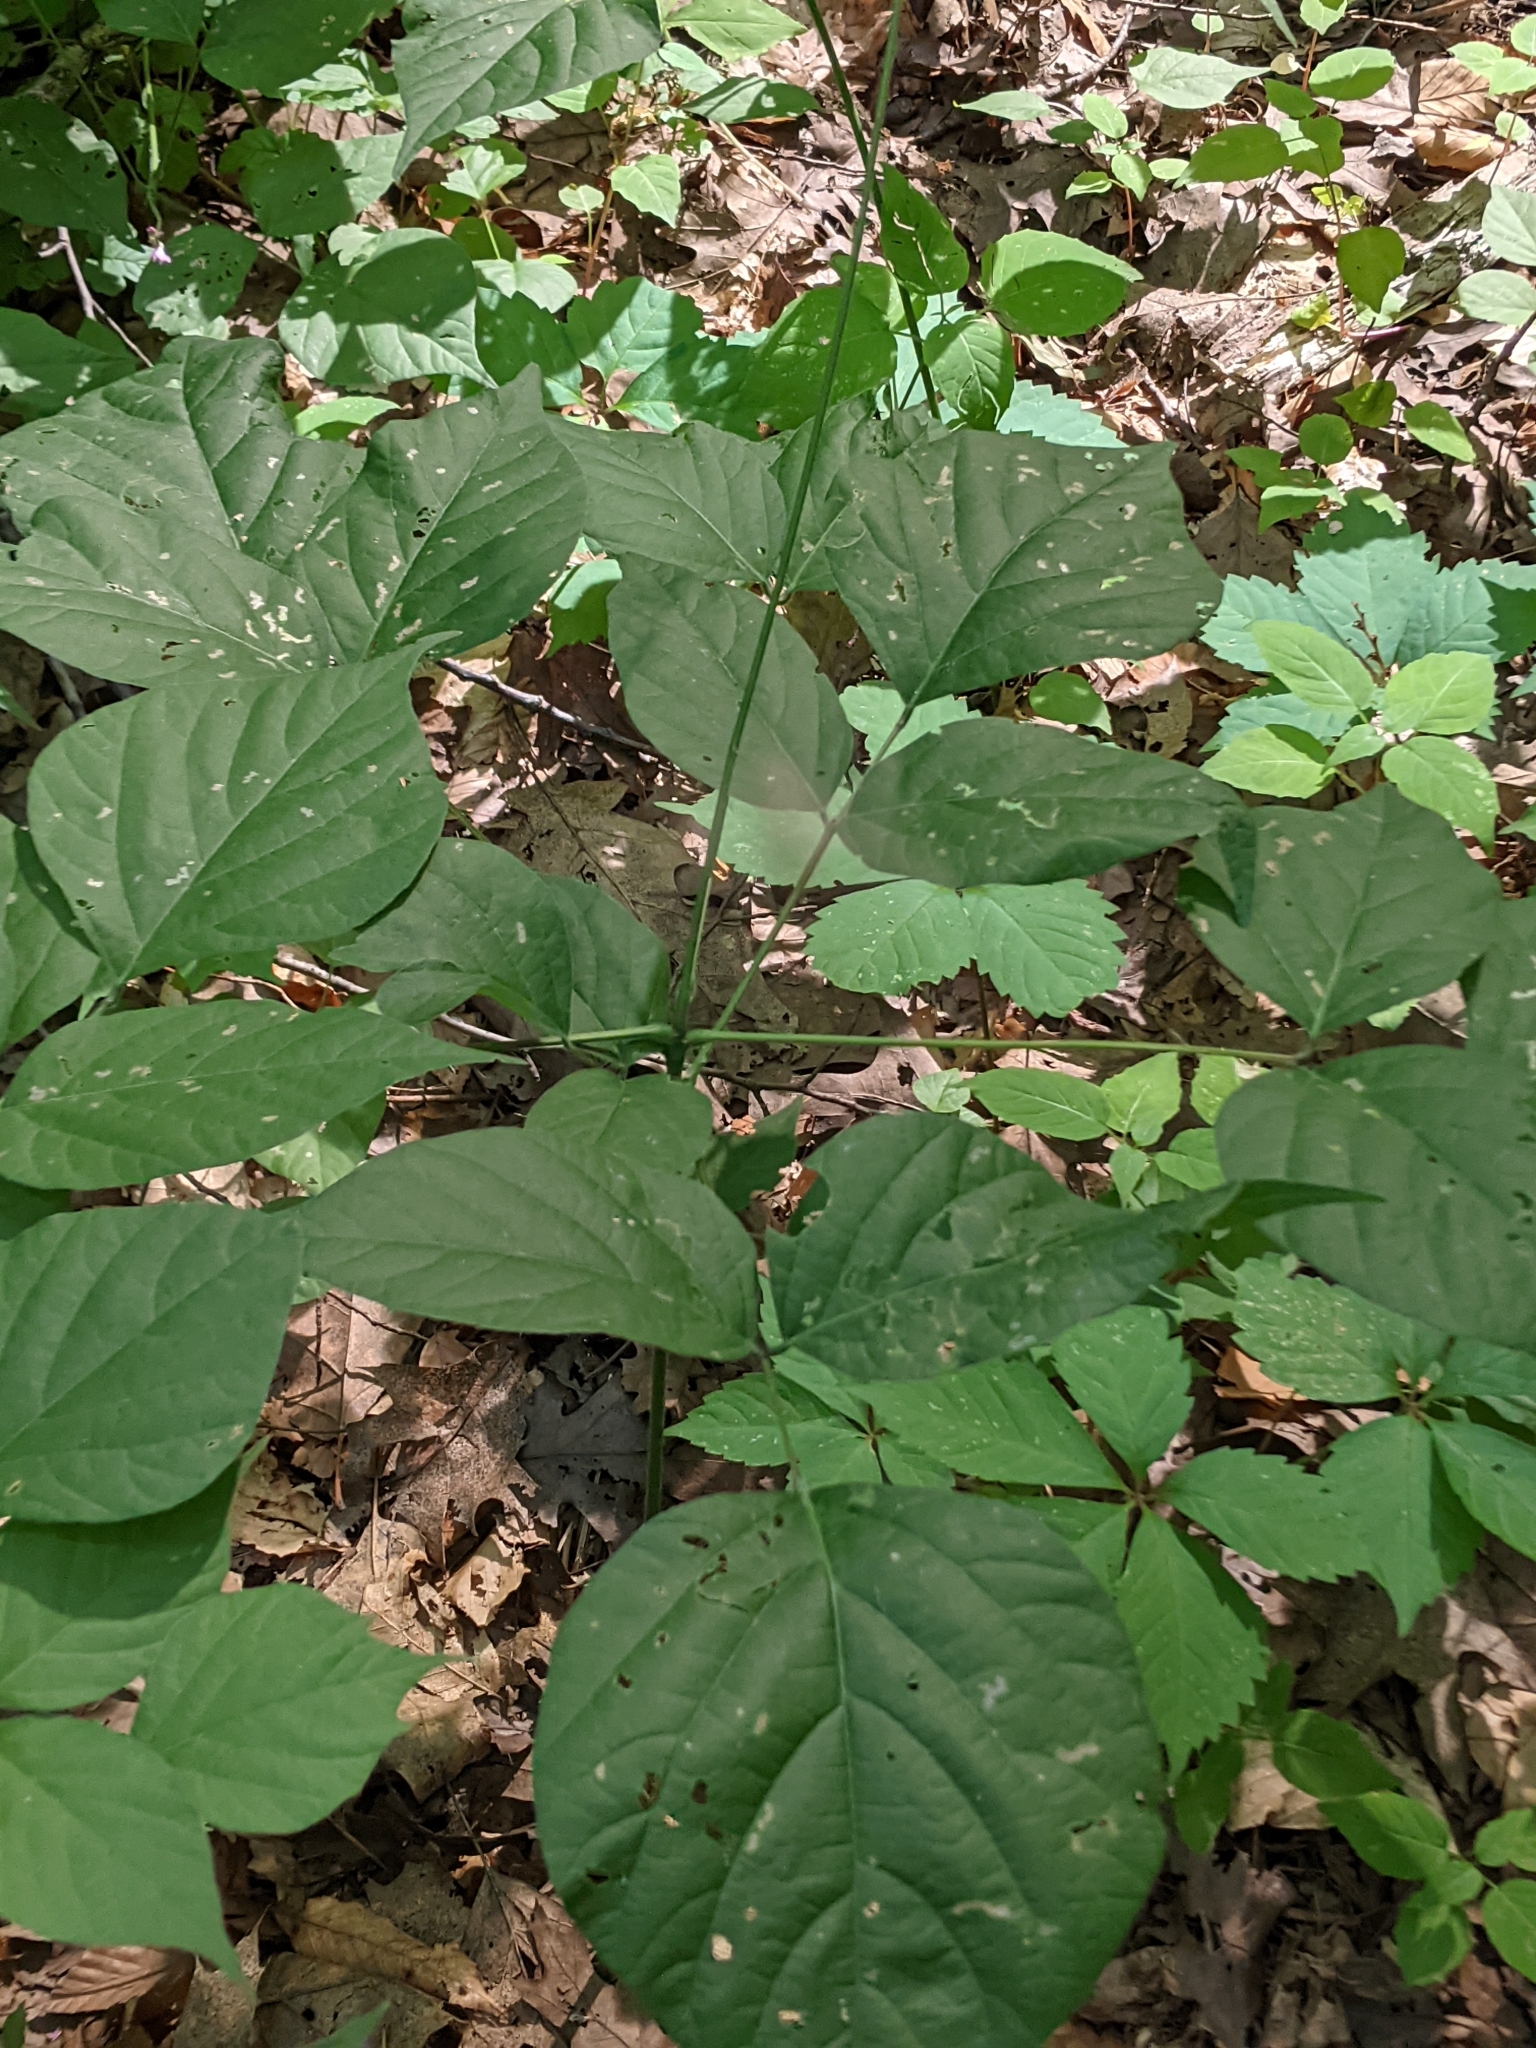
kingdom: Plantae
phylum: Tracheophyta
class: Magnoliopsida
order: Fabales
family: Fabaceae
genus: Hylodesmum
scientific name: Hylodesmum glutinosum
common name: Clustered-leaved tick-trefoil
